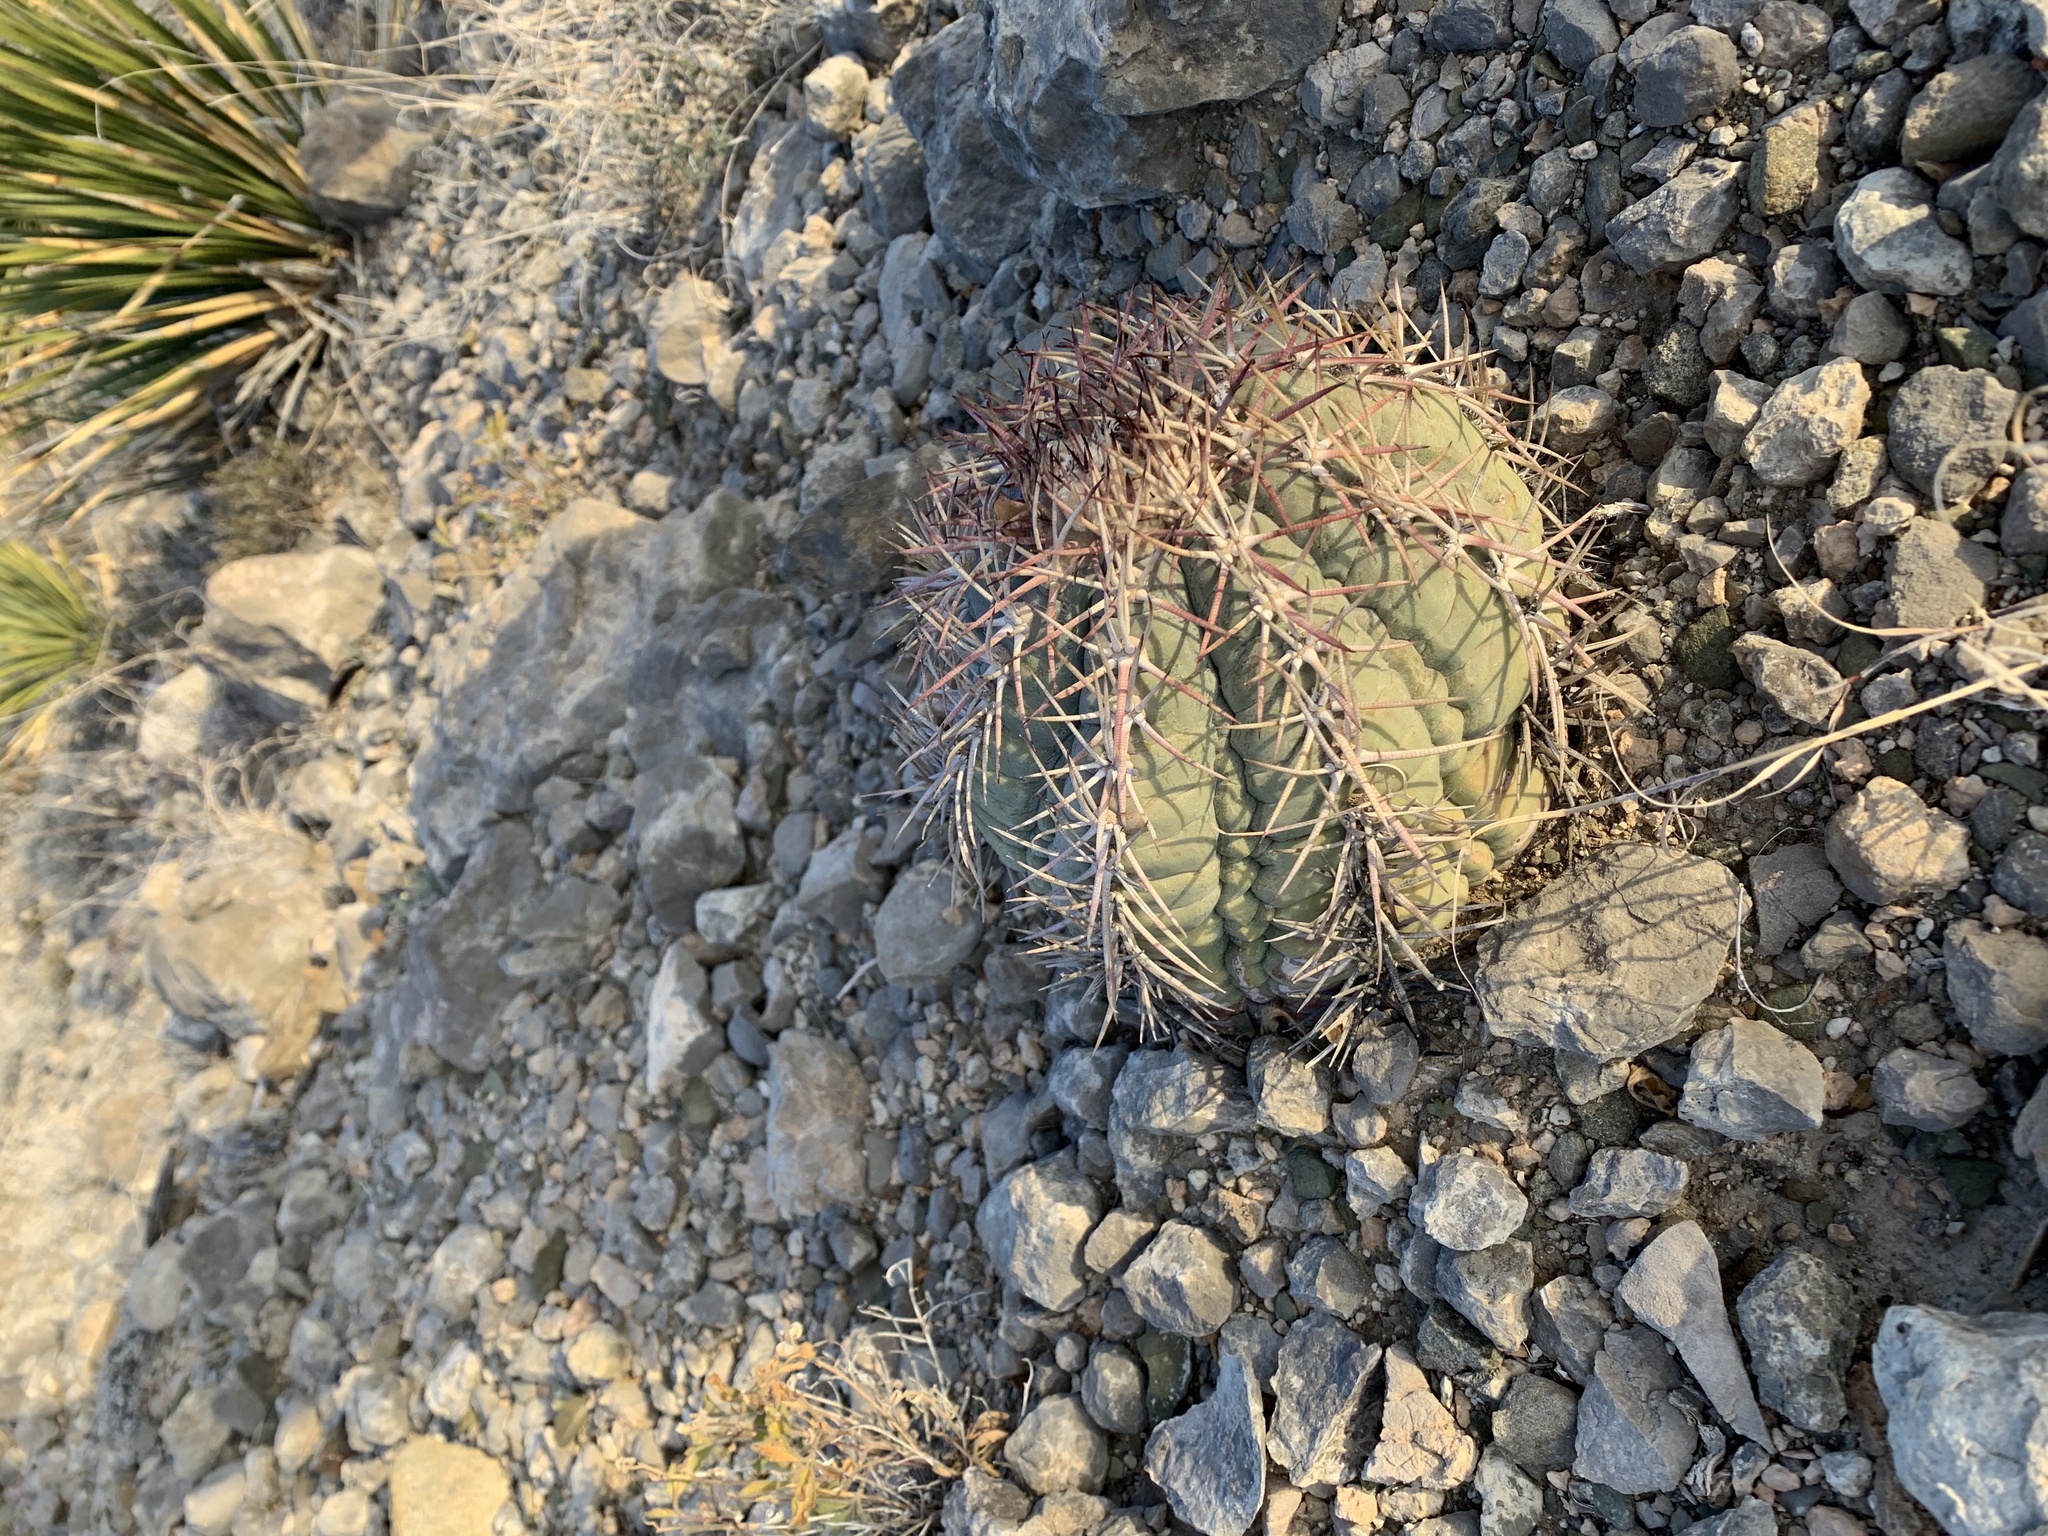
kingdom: Plantae
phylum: Tracheophyta
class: Magnoliopsida
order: Caryophyllales
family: Cactaceae
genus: Echinocactus
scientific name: Echinocactus horizonthalonius
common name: Devilshead
